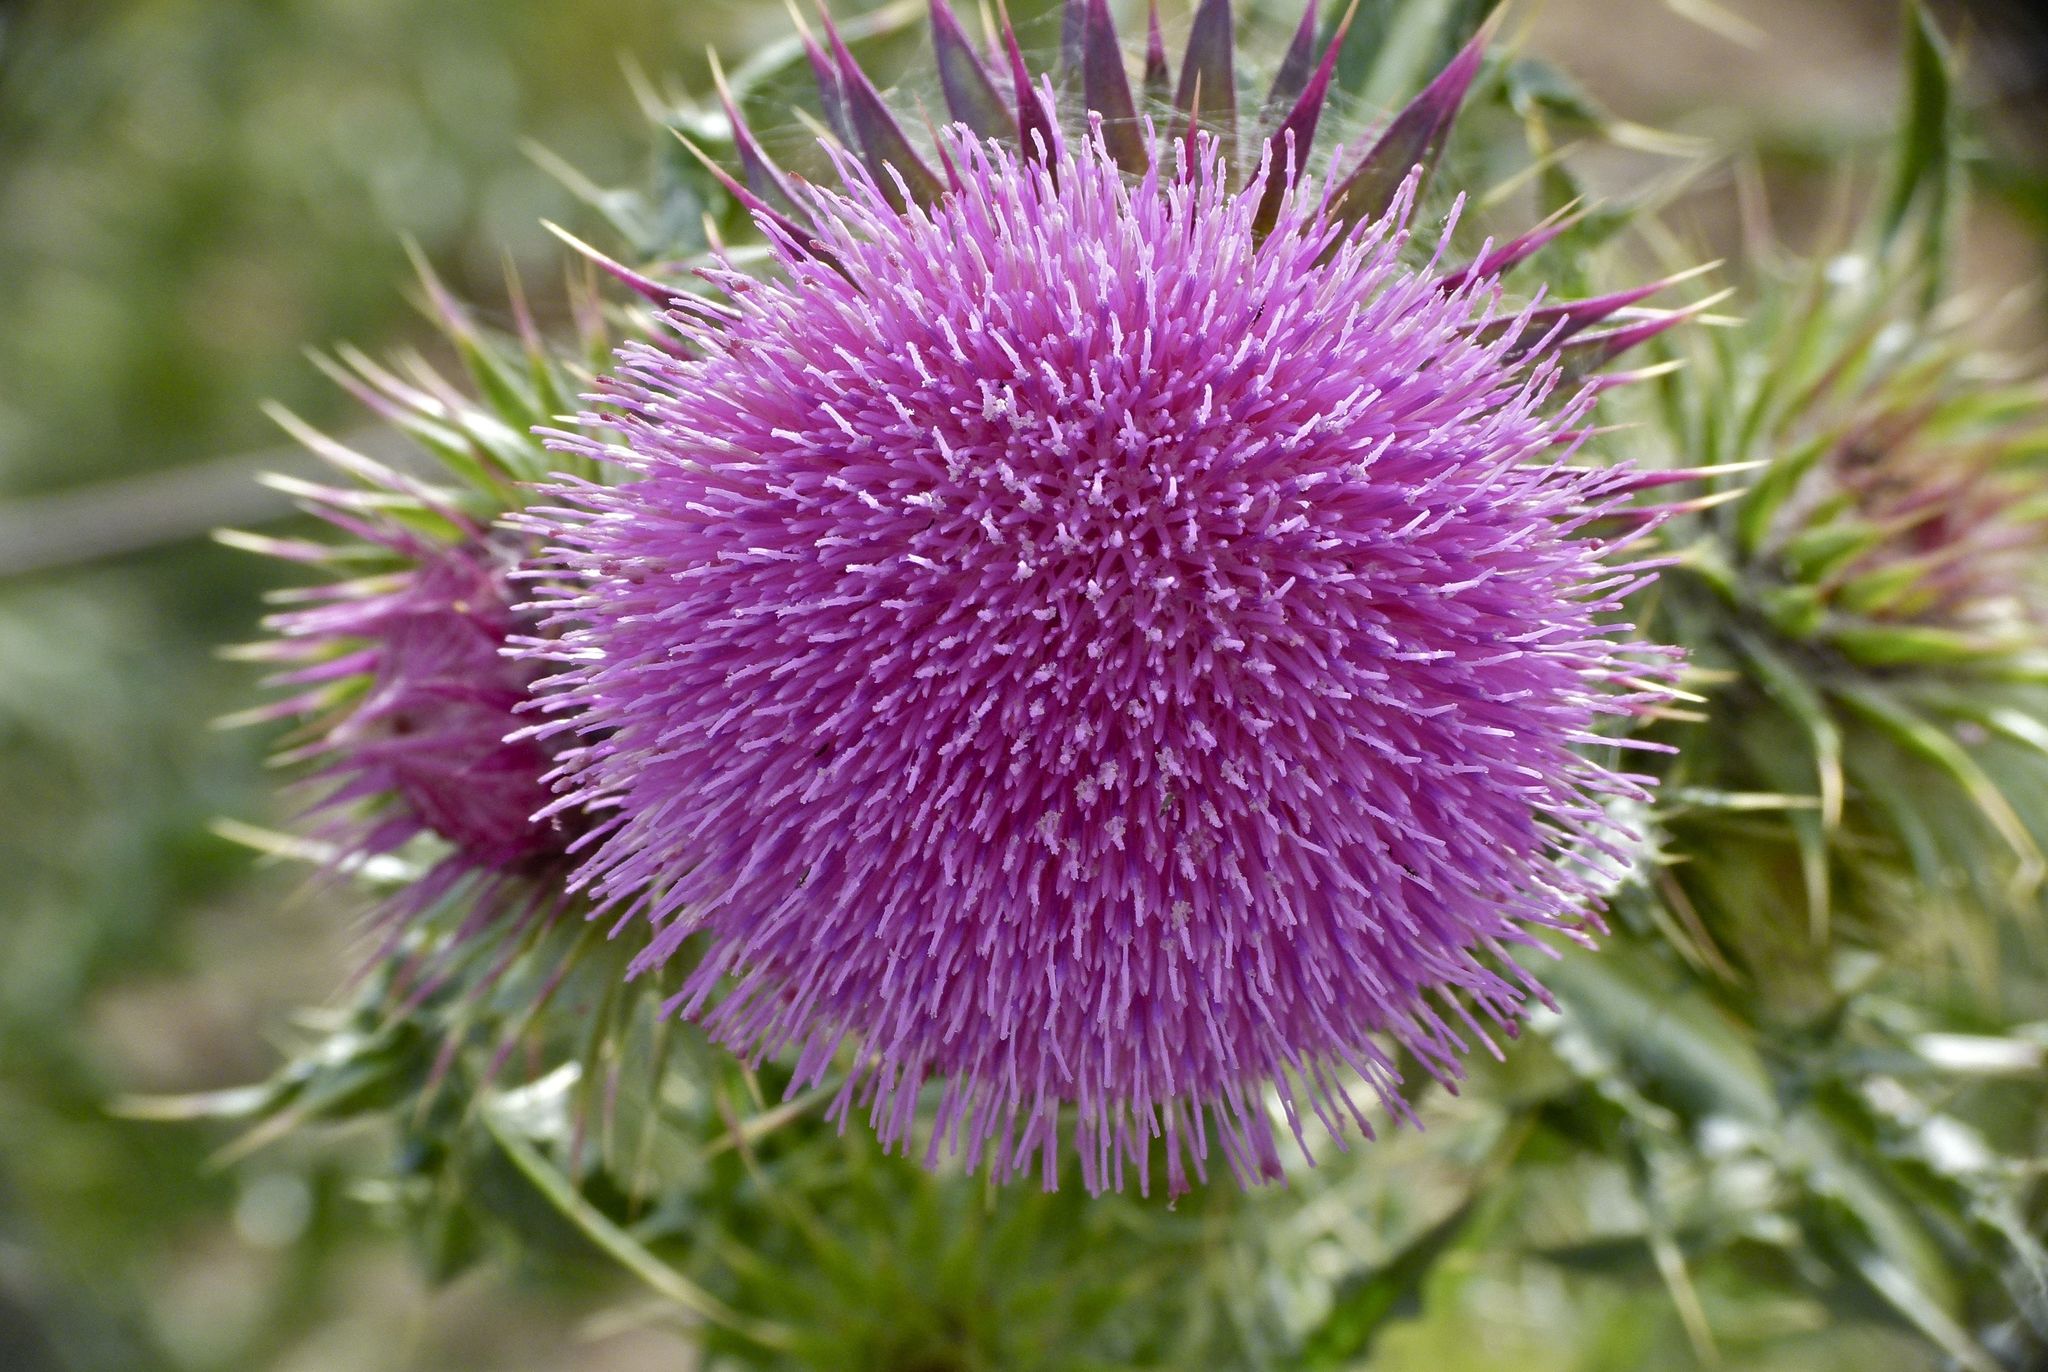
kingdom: Plantae
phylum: Tracheophyta
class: Magnoliopsida
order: Asterales
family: Asteraceae
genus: Carduus
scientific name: Carduus nutans
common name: Musk thistle
